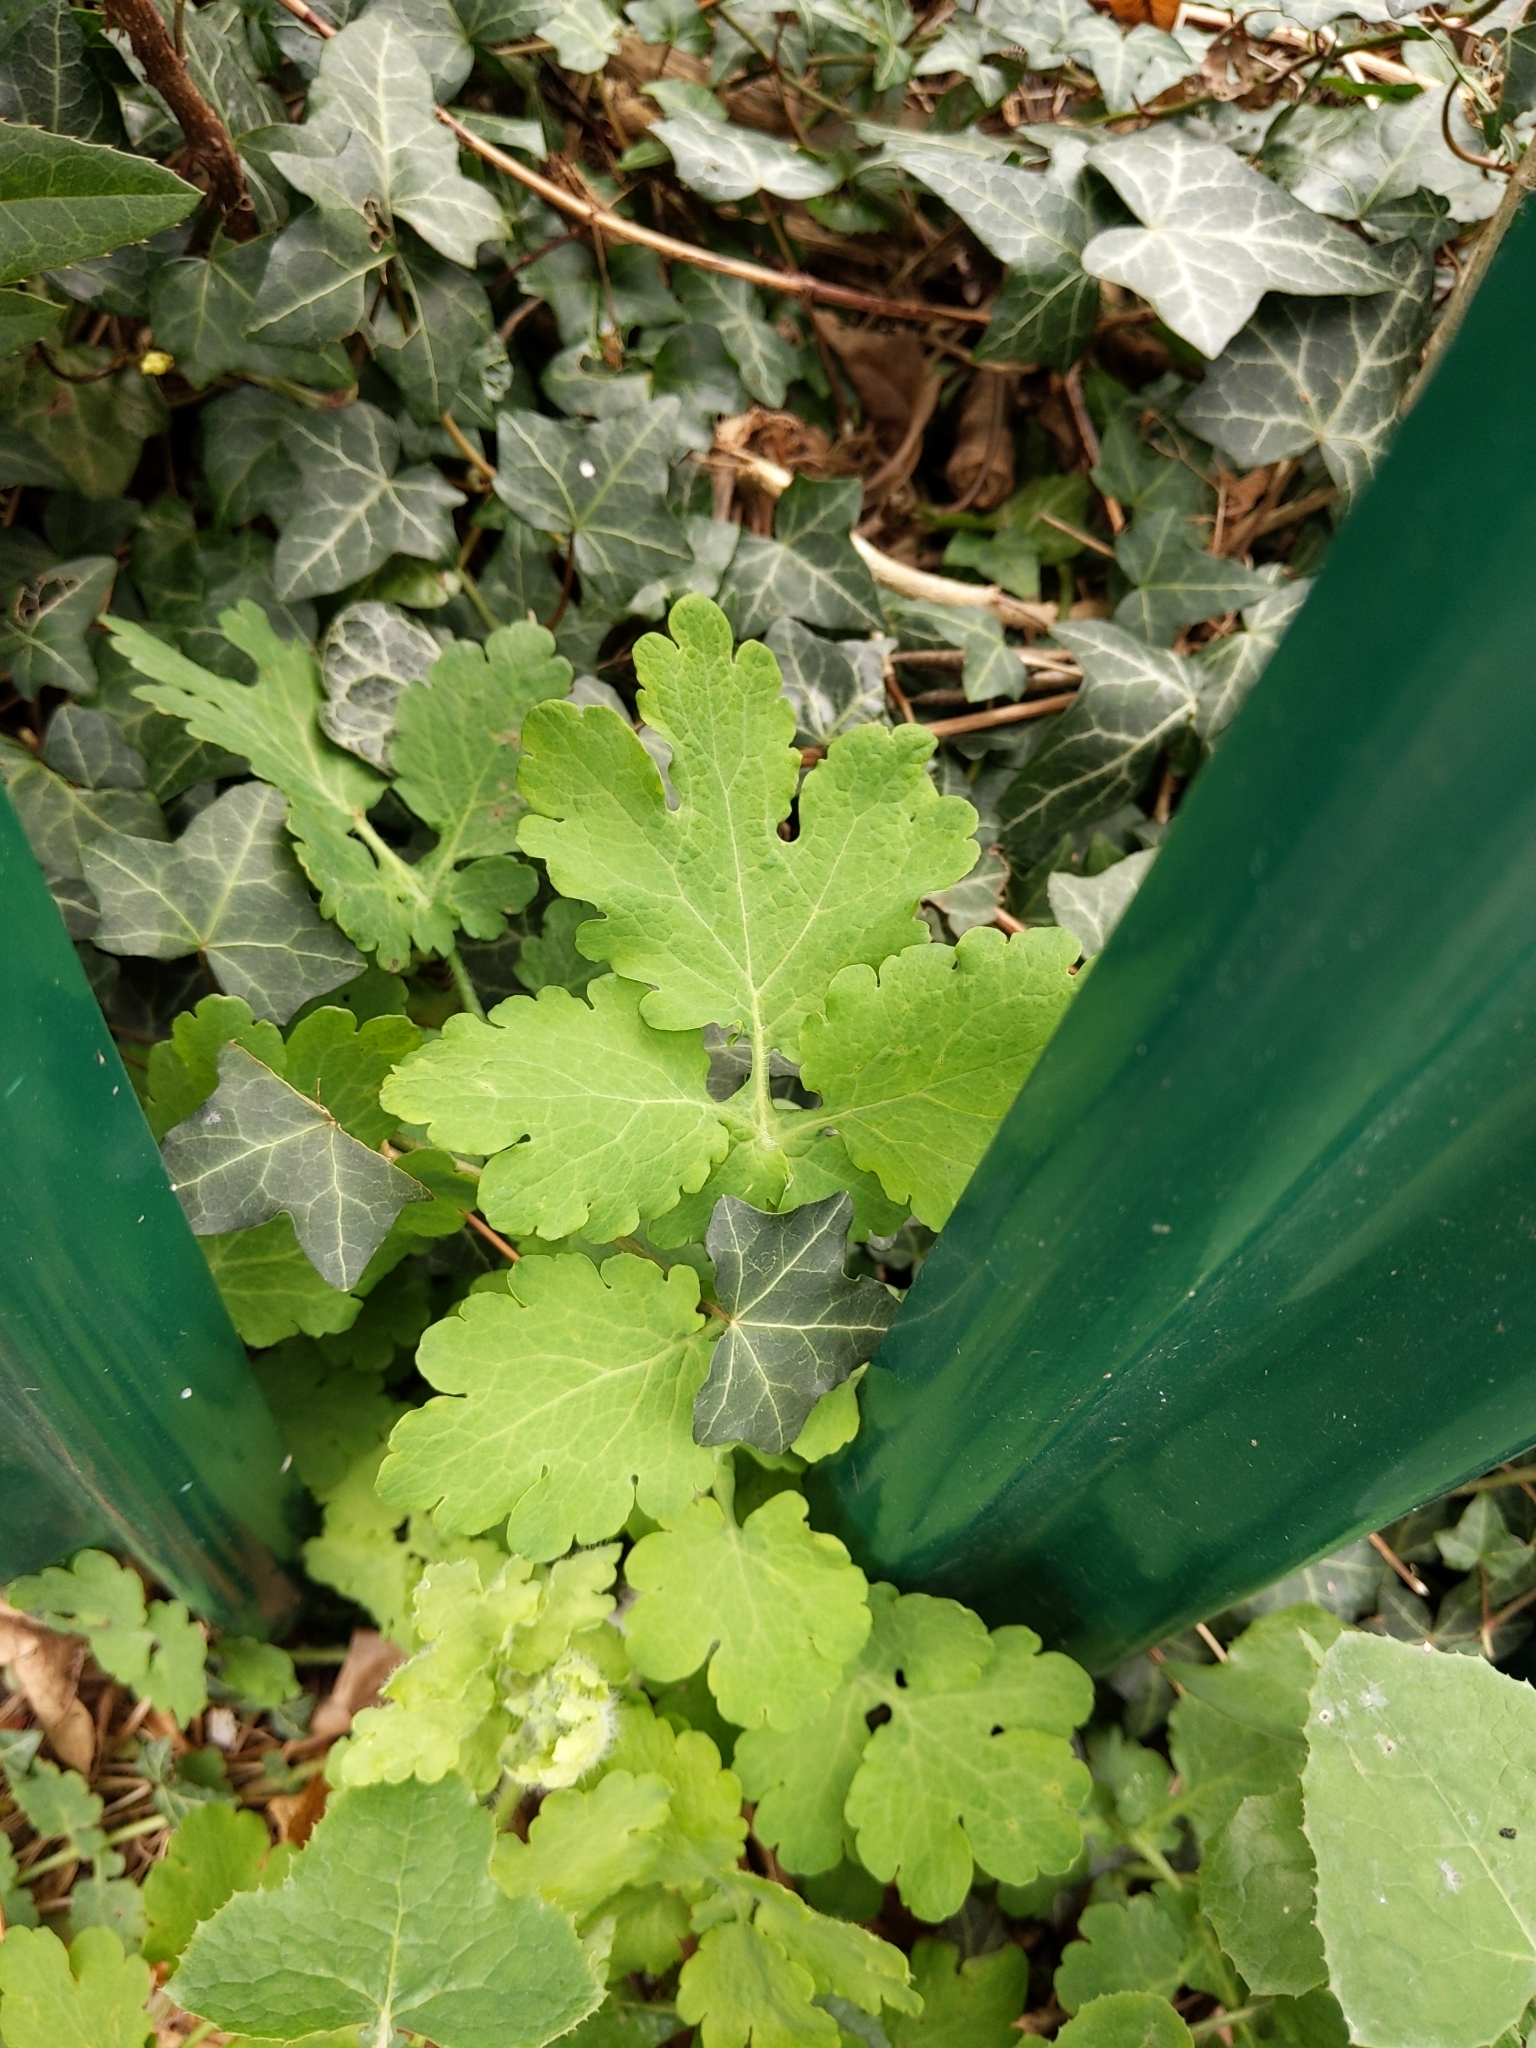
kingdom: Plantae
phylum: Tracheophyta
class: Magnoliopsida
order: Ranunculales
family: Papaveraceae
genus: Chelidonium
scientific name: Chelidonium majus
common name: Greater celandine
